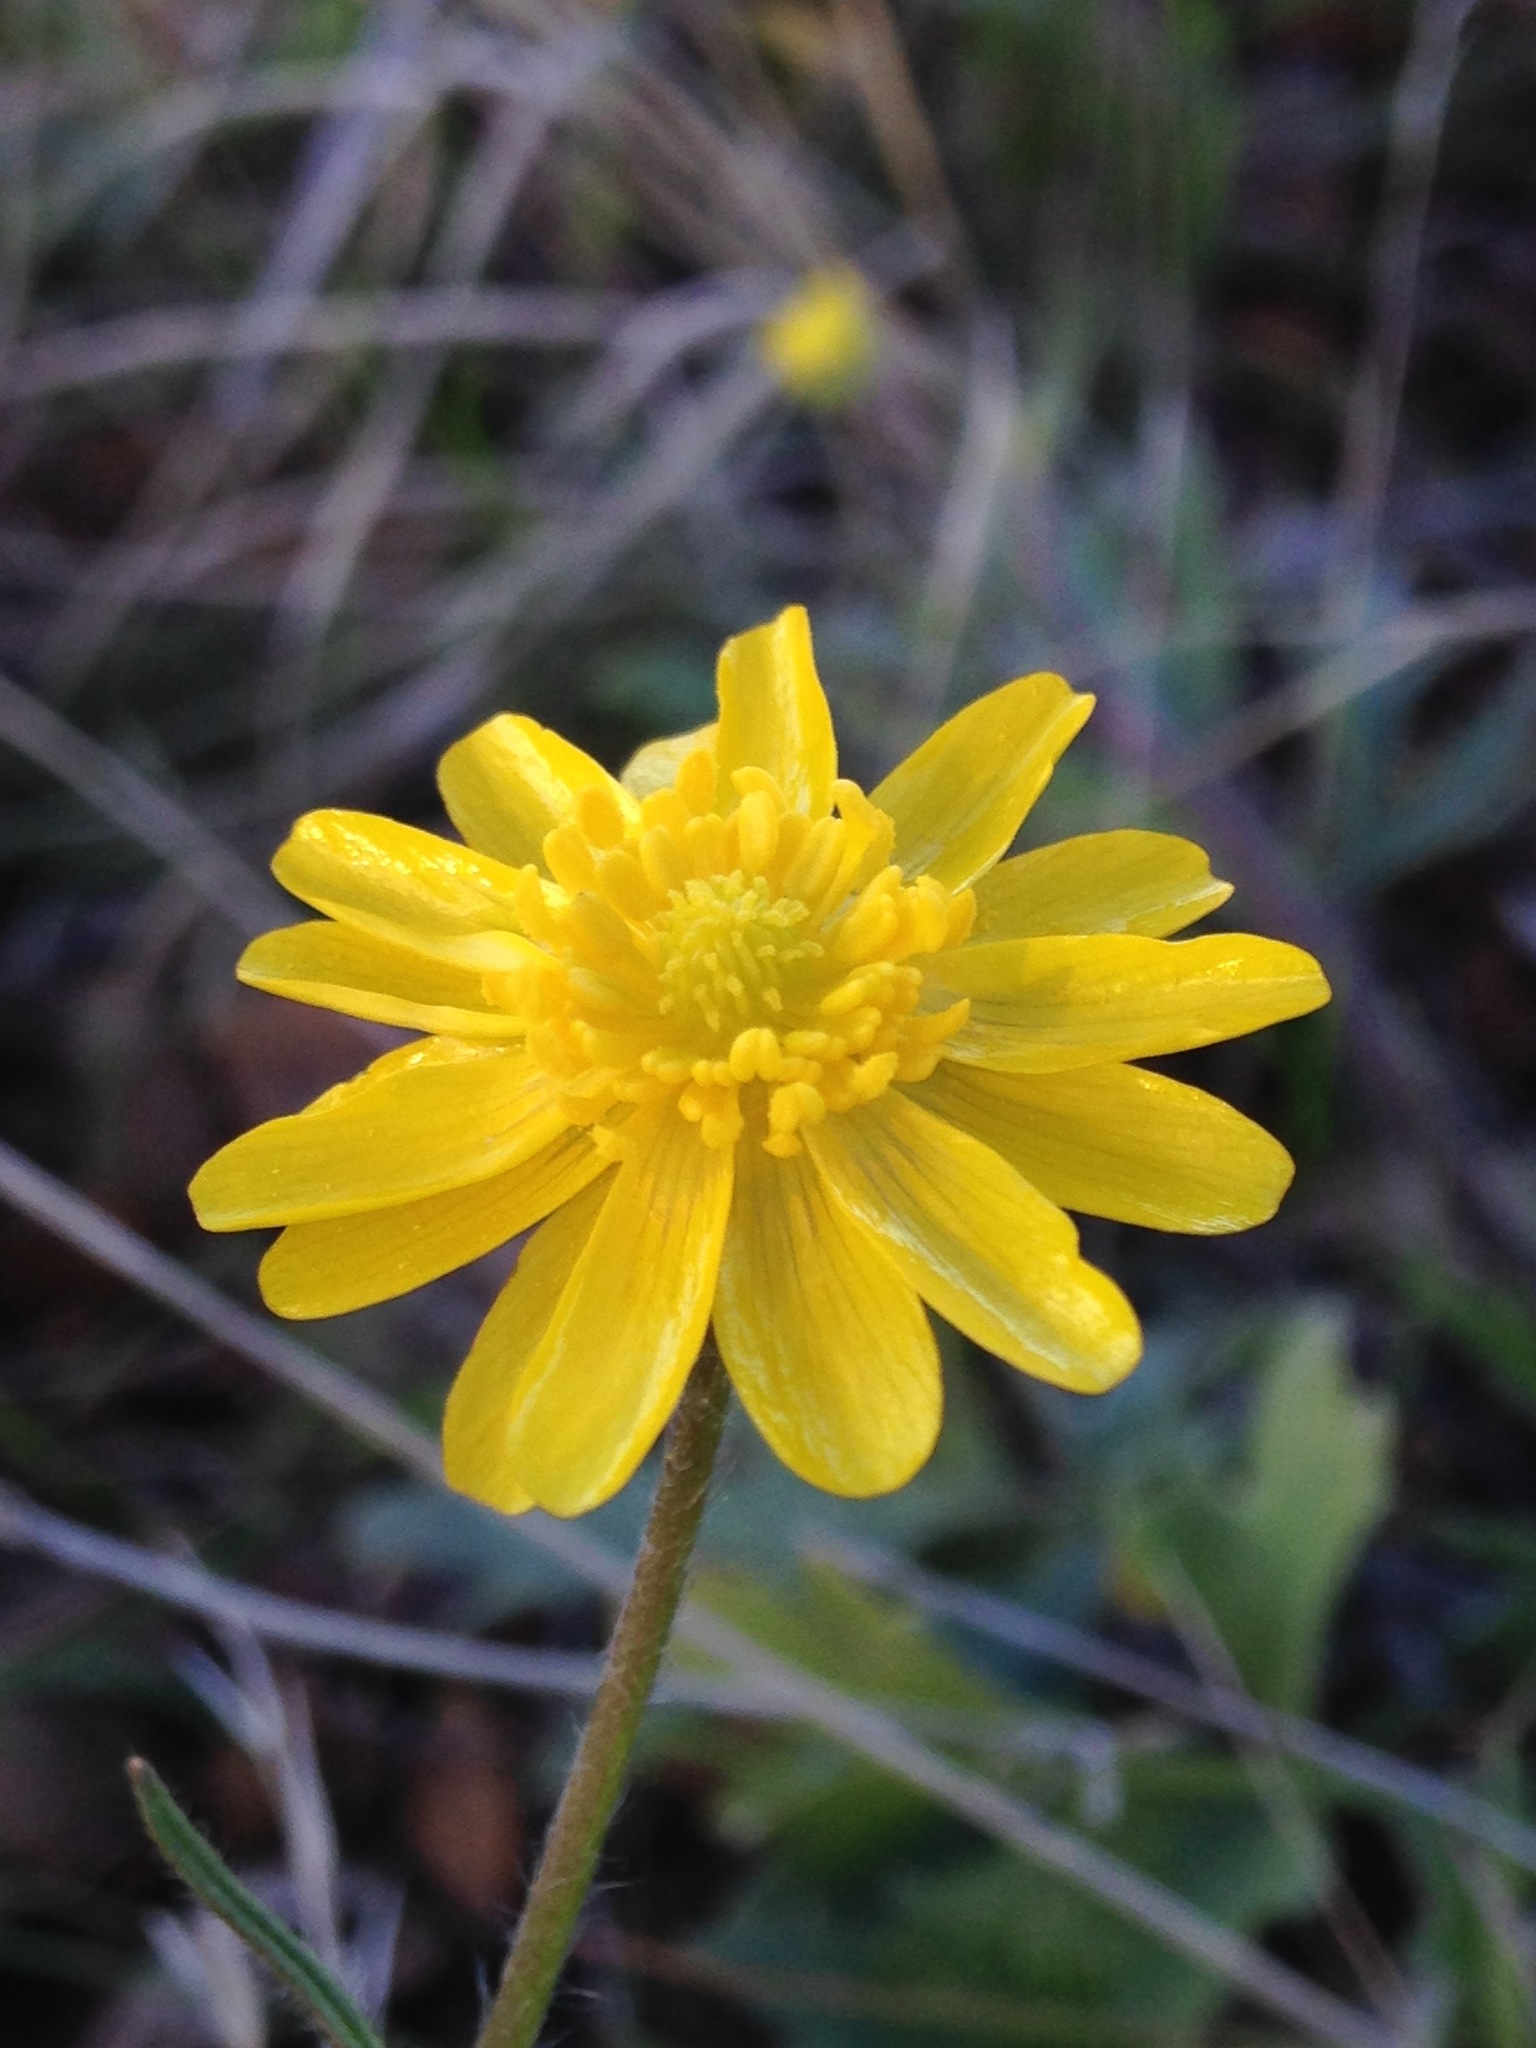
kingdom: Plantae
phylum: Tracheophyta
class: Magnoliopsida
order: Ranunculales
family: Ranunculaceae
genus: Ranunculus
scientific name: Ranunculus californicus
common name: California buttercup
